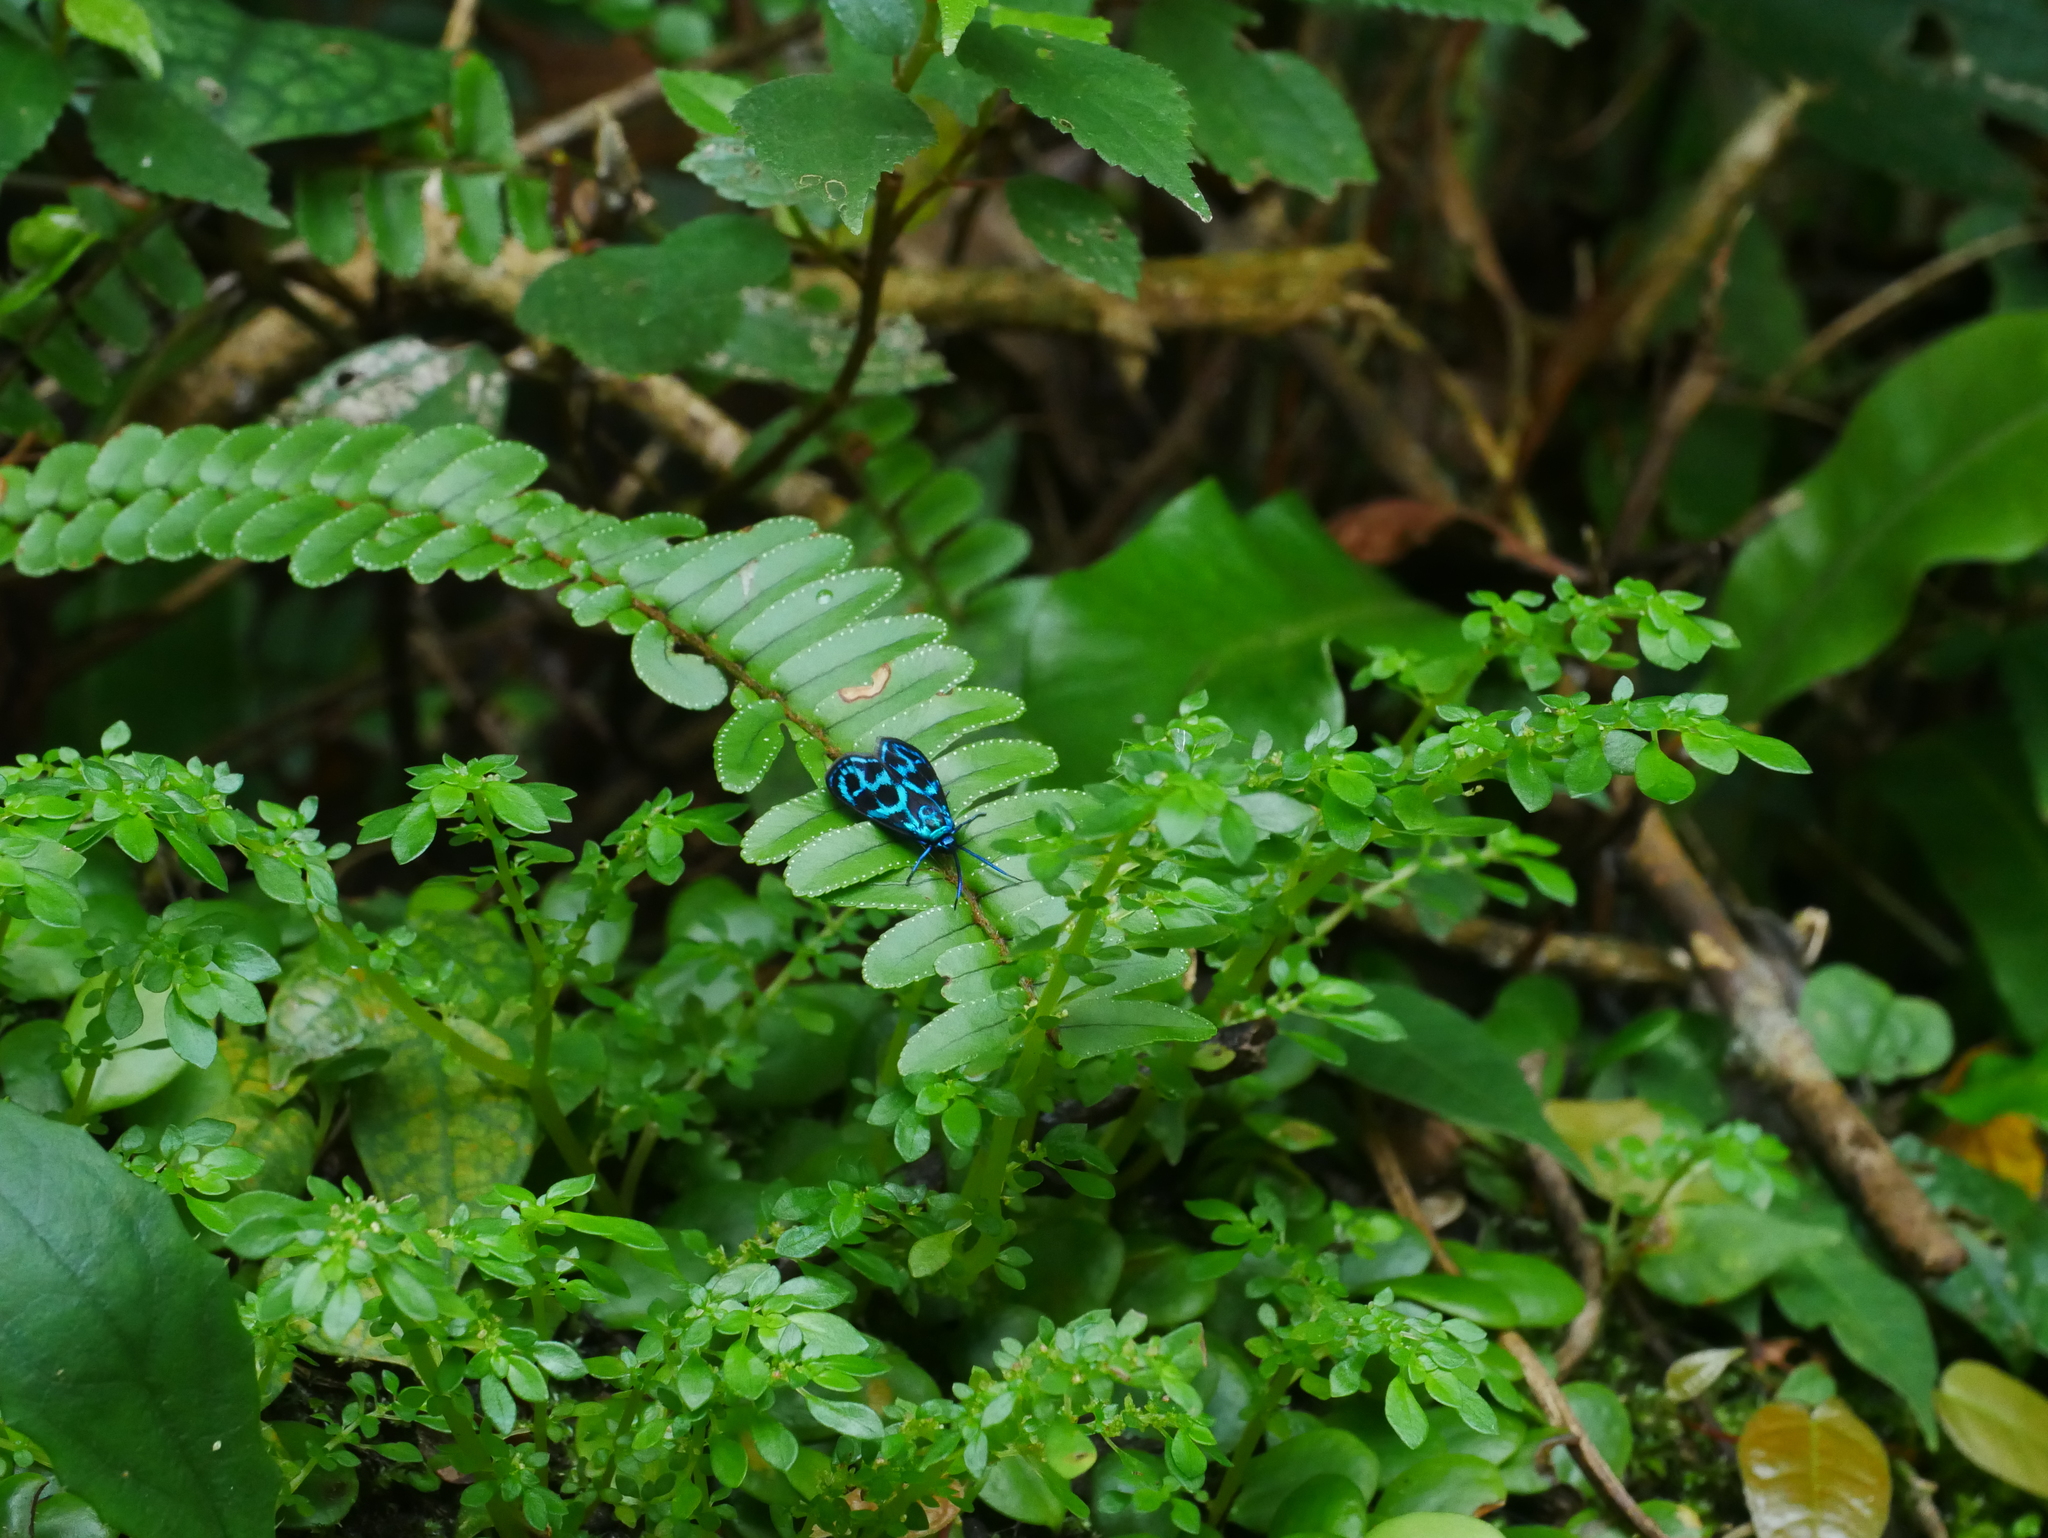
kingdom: Animalia
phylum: Arthropoda
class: Insecta
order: Lepidoptera
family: Zygaenidae
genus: Clelea
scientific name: Clelea simplicior
